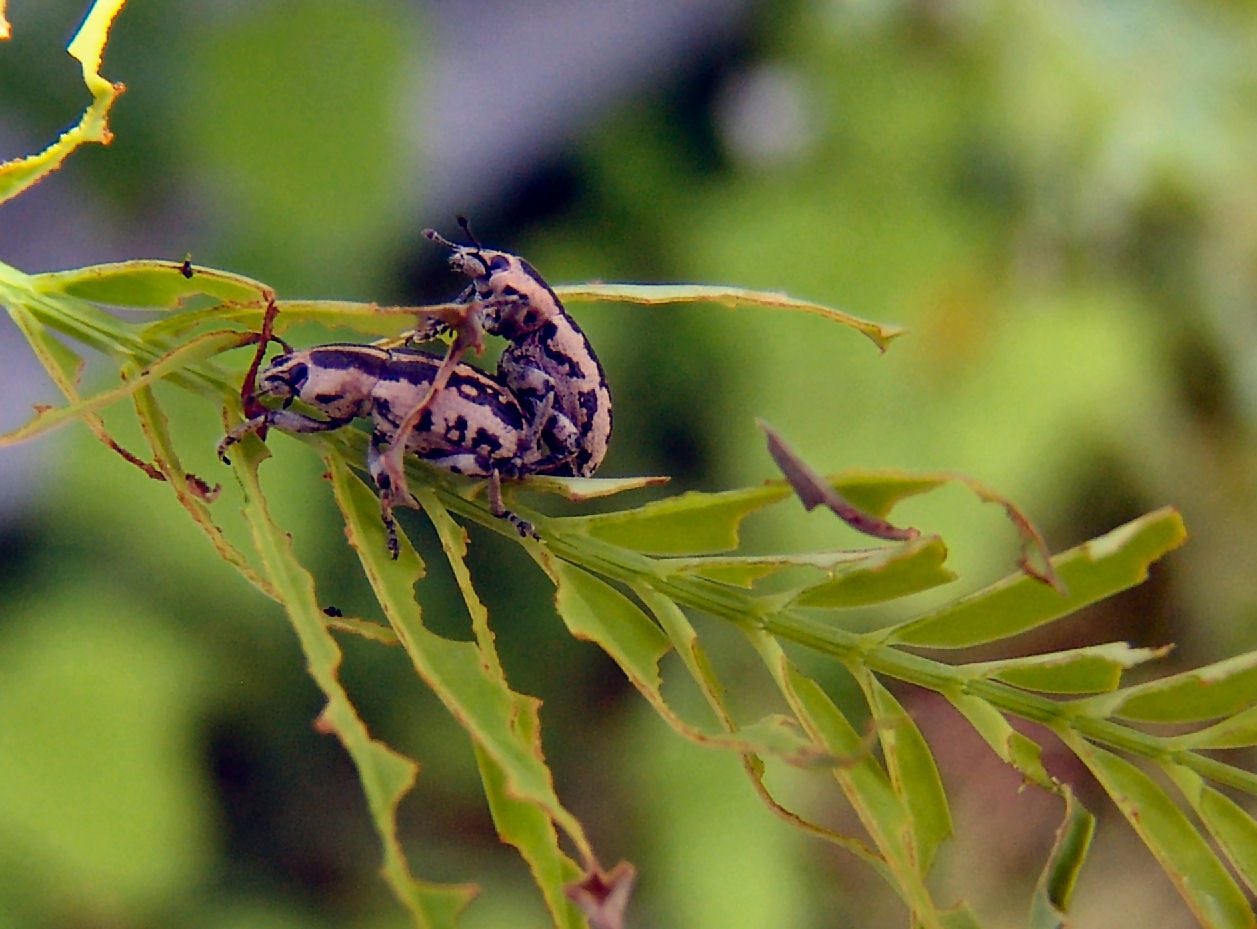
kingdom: Animalia
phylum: Arthropoda
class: Insecta
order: Coleoptera
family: Curculionidae
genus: Eudiagogus
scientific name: Eudiagogus rosenschoeldi
